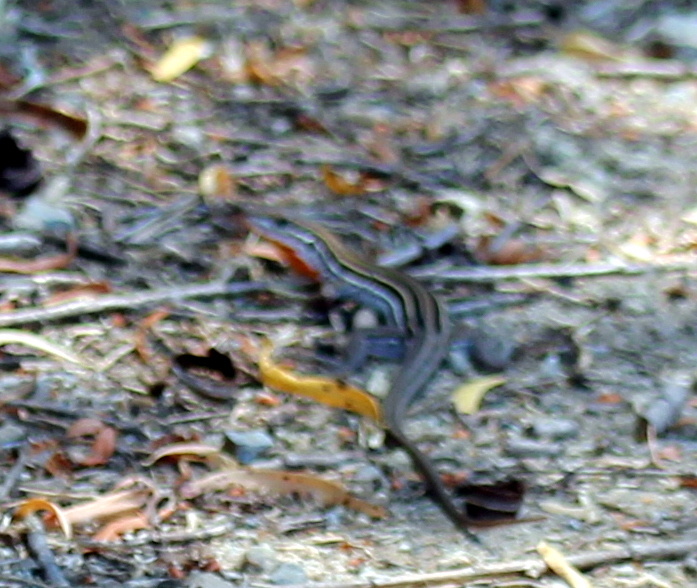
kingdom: Animalia
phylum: Chordata
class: Squamata
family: Teiidae
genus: Aspidoscelis
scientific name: Aspidoscelis hyperythrus
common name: Orange-throated race-runner
